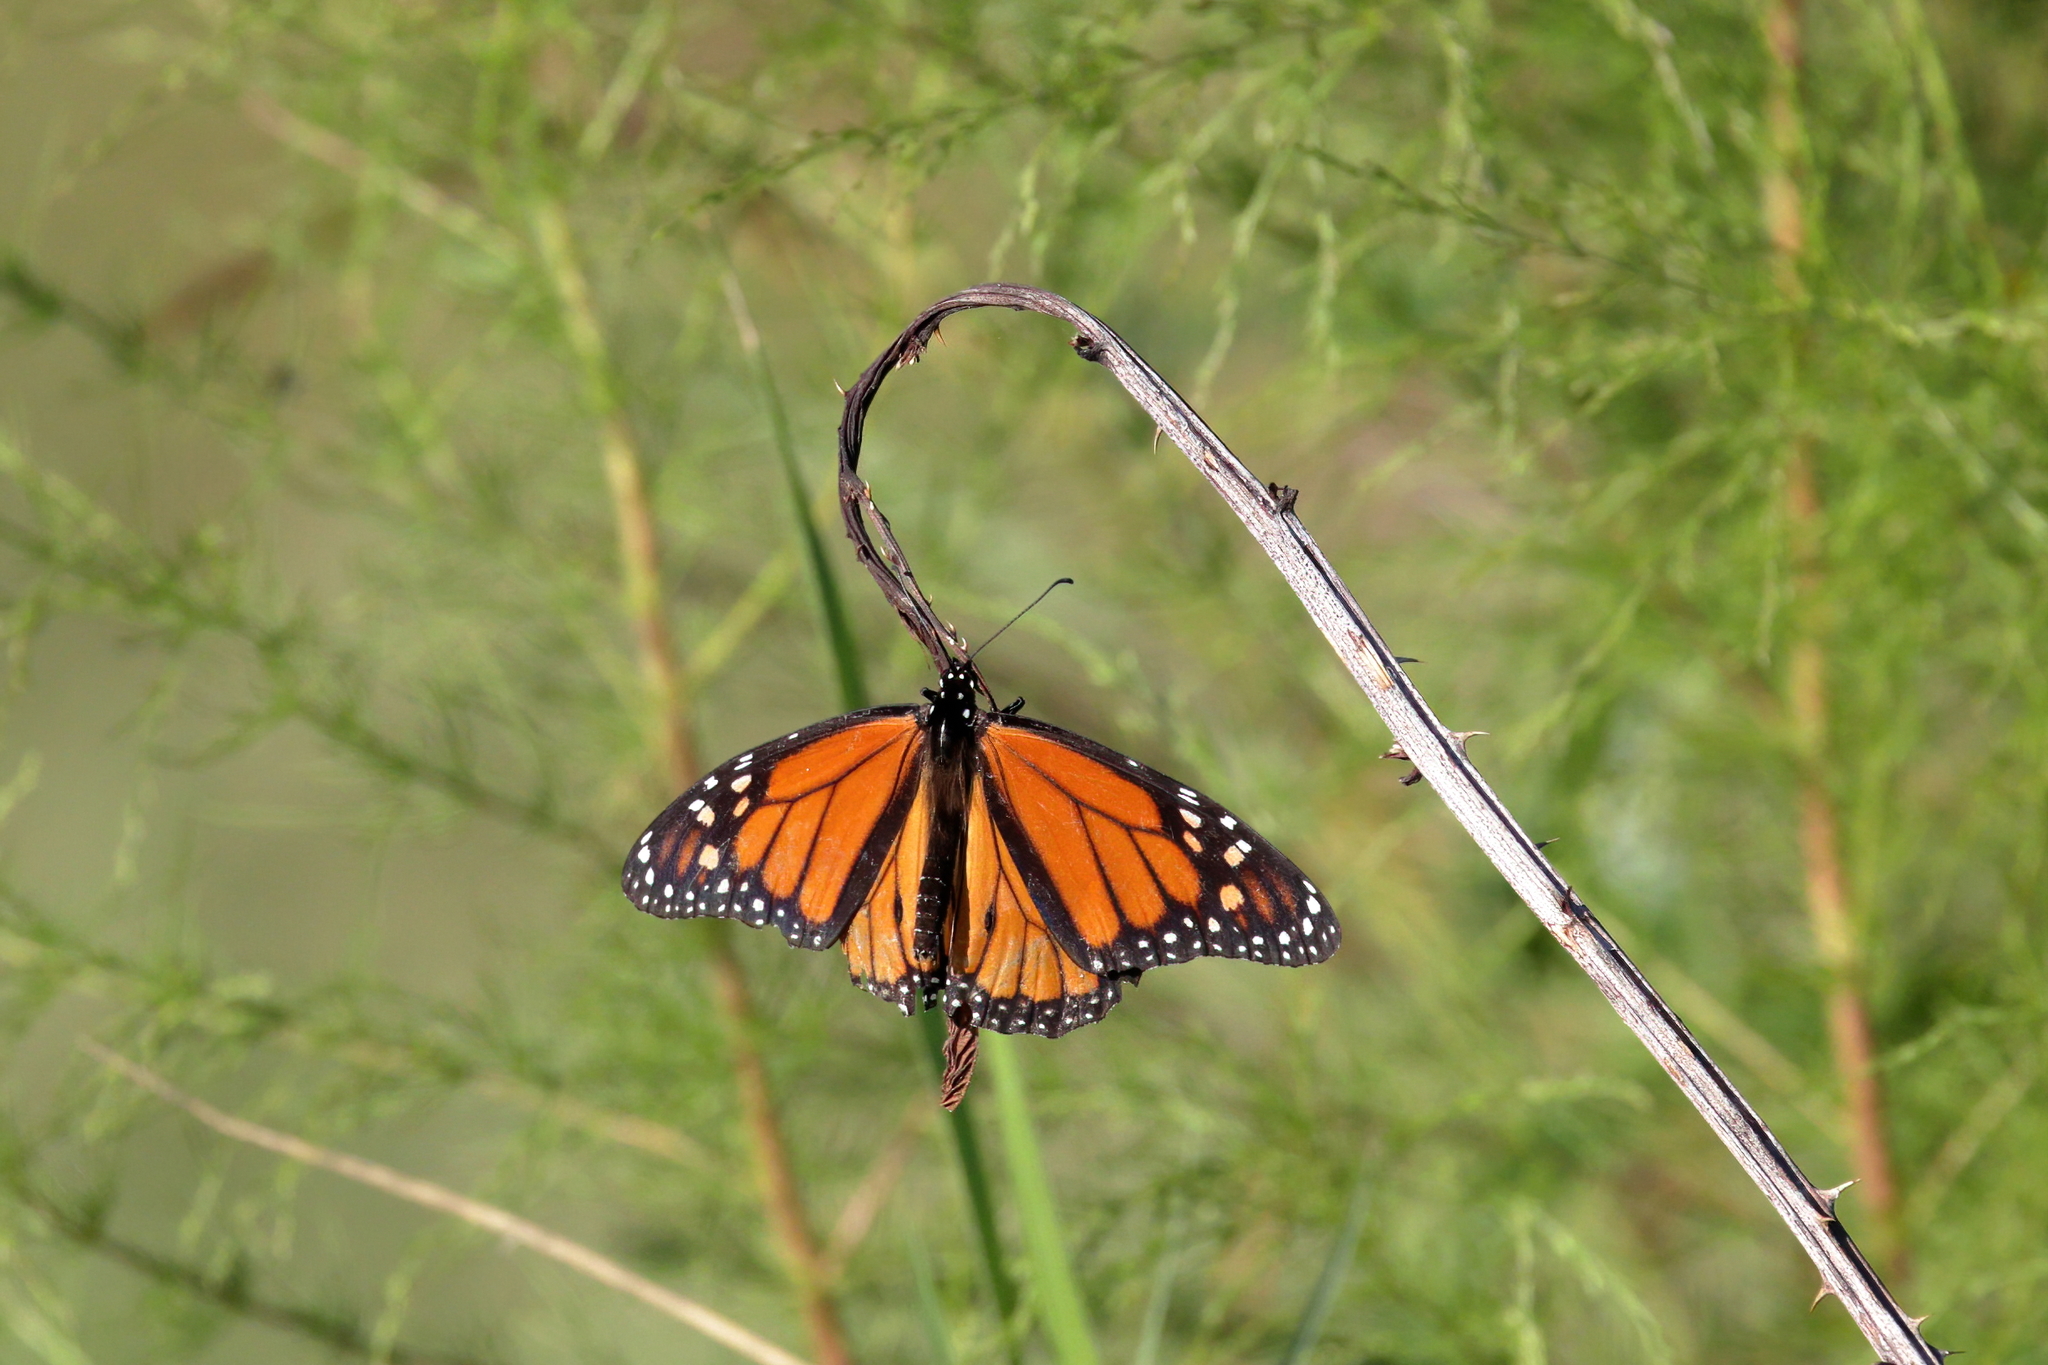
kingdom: Animalia
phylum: Arthropoda
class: Insecta
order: Lepidoptera
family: Nymphalidae
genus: Danaus
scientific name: Danaus plexippus
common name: Monarch
